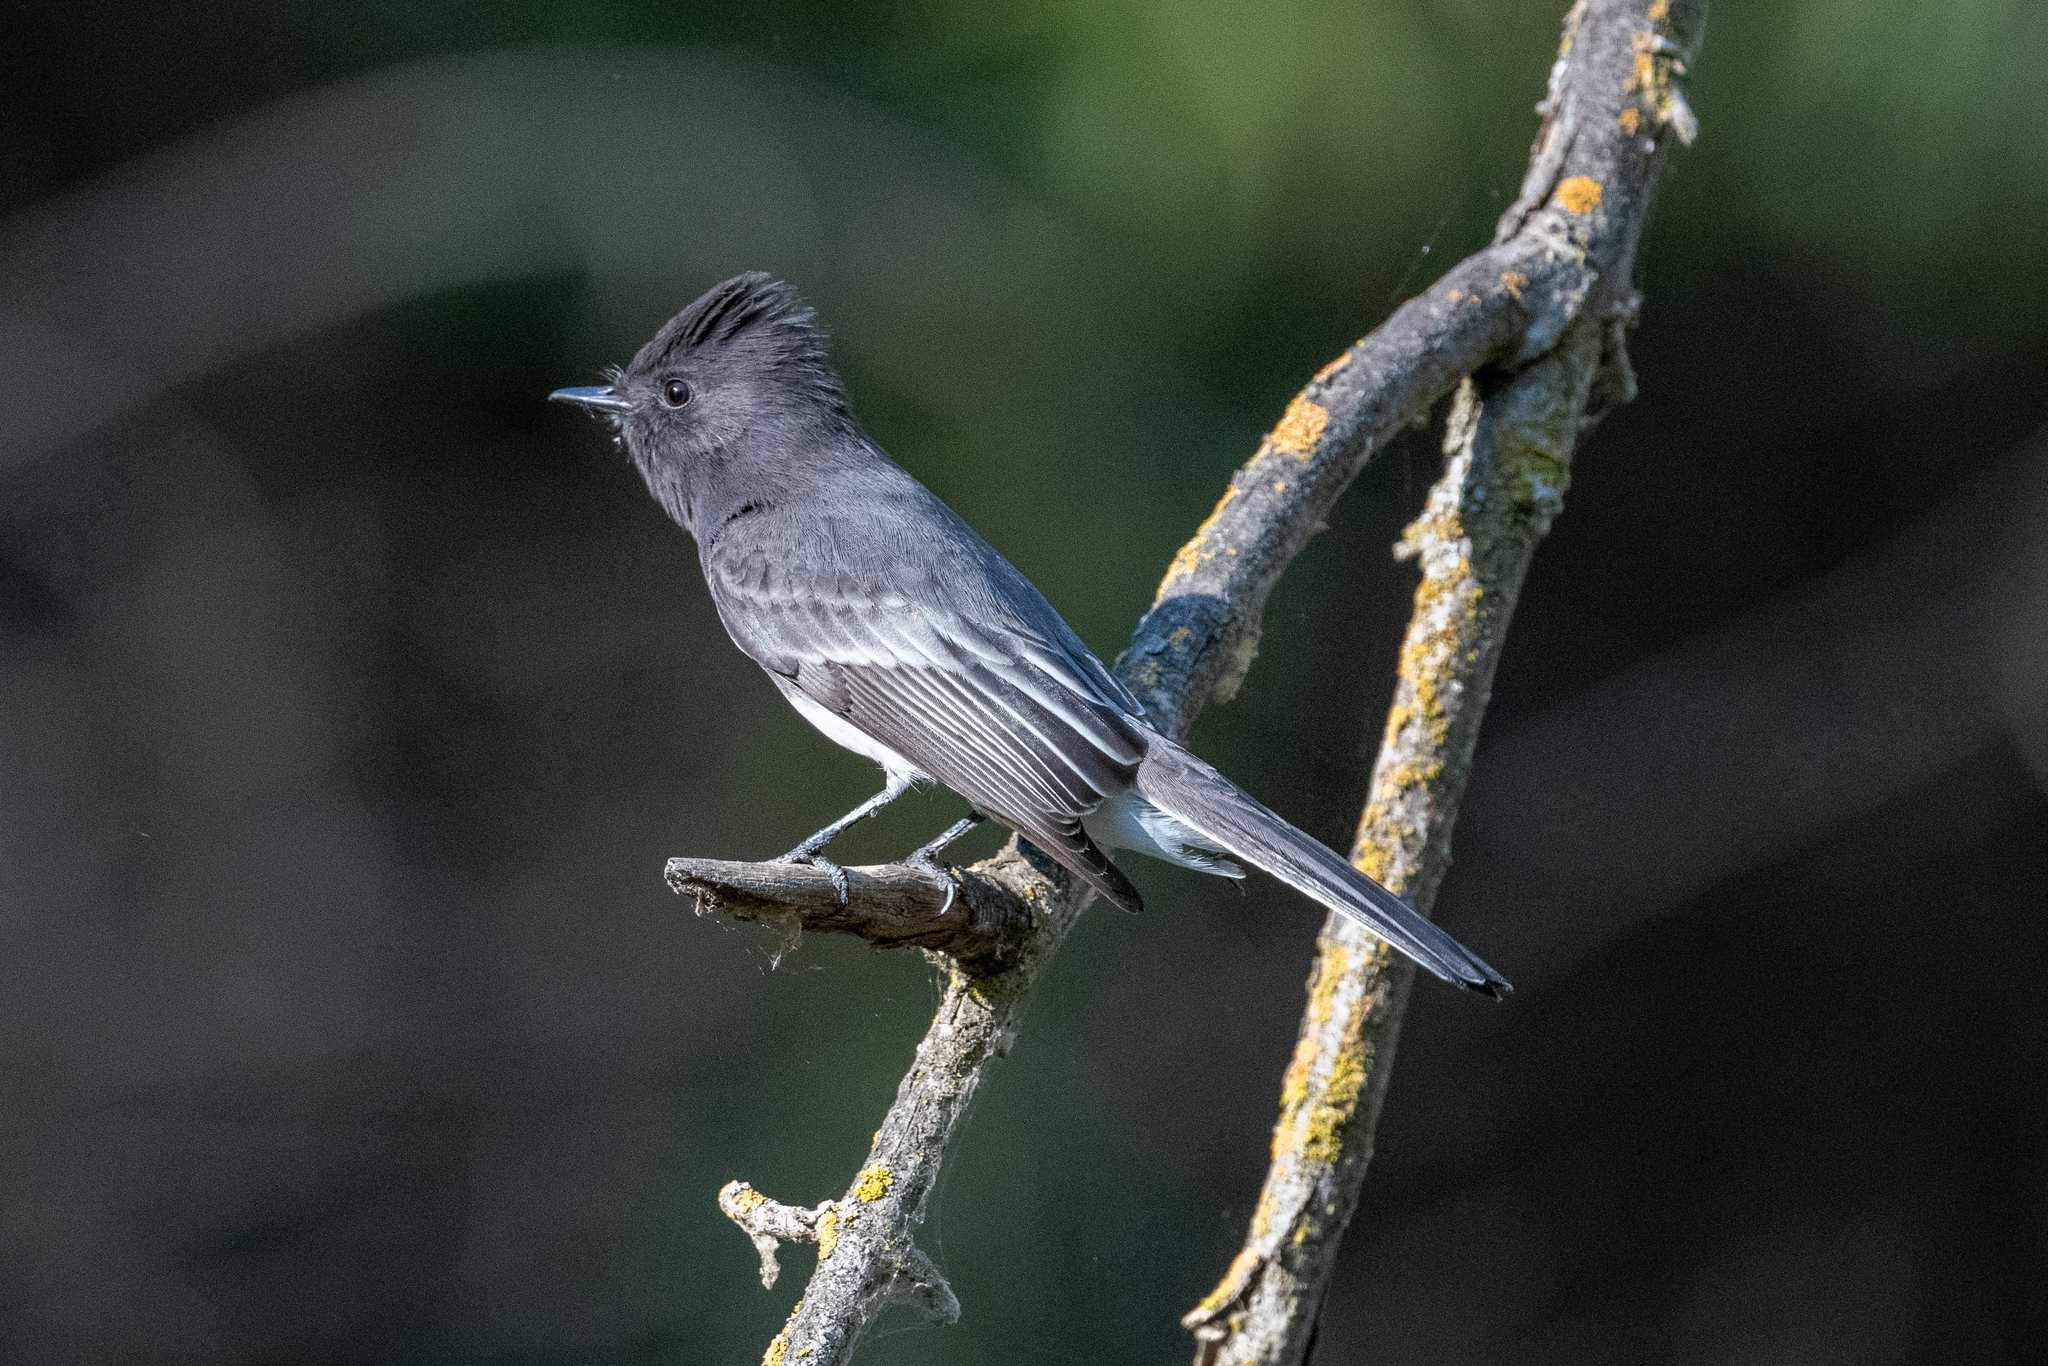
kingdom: Animalia
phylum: Chordata
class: Aves
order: Passeriformes
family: Tyrannidae
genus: Sayornis
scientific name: Sayornis nigricans
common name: Black phoebe
